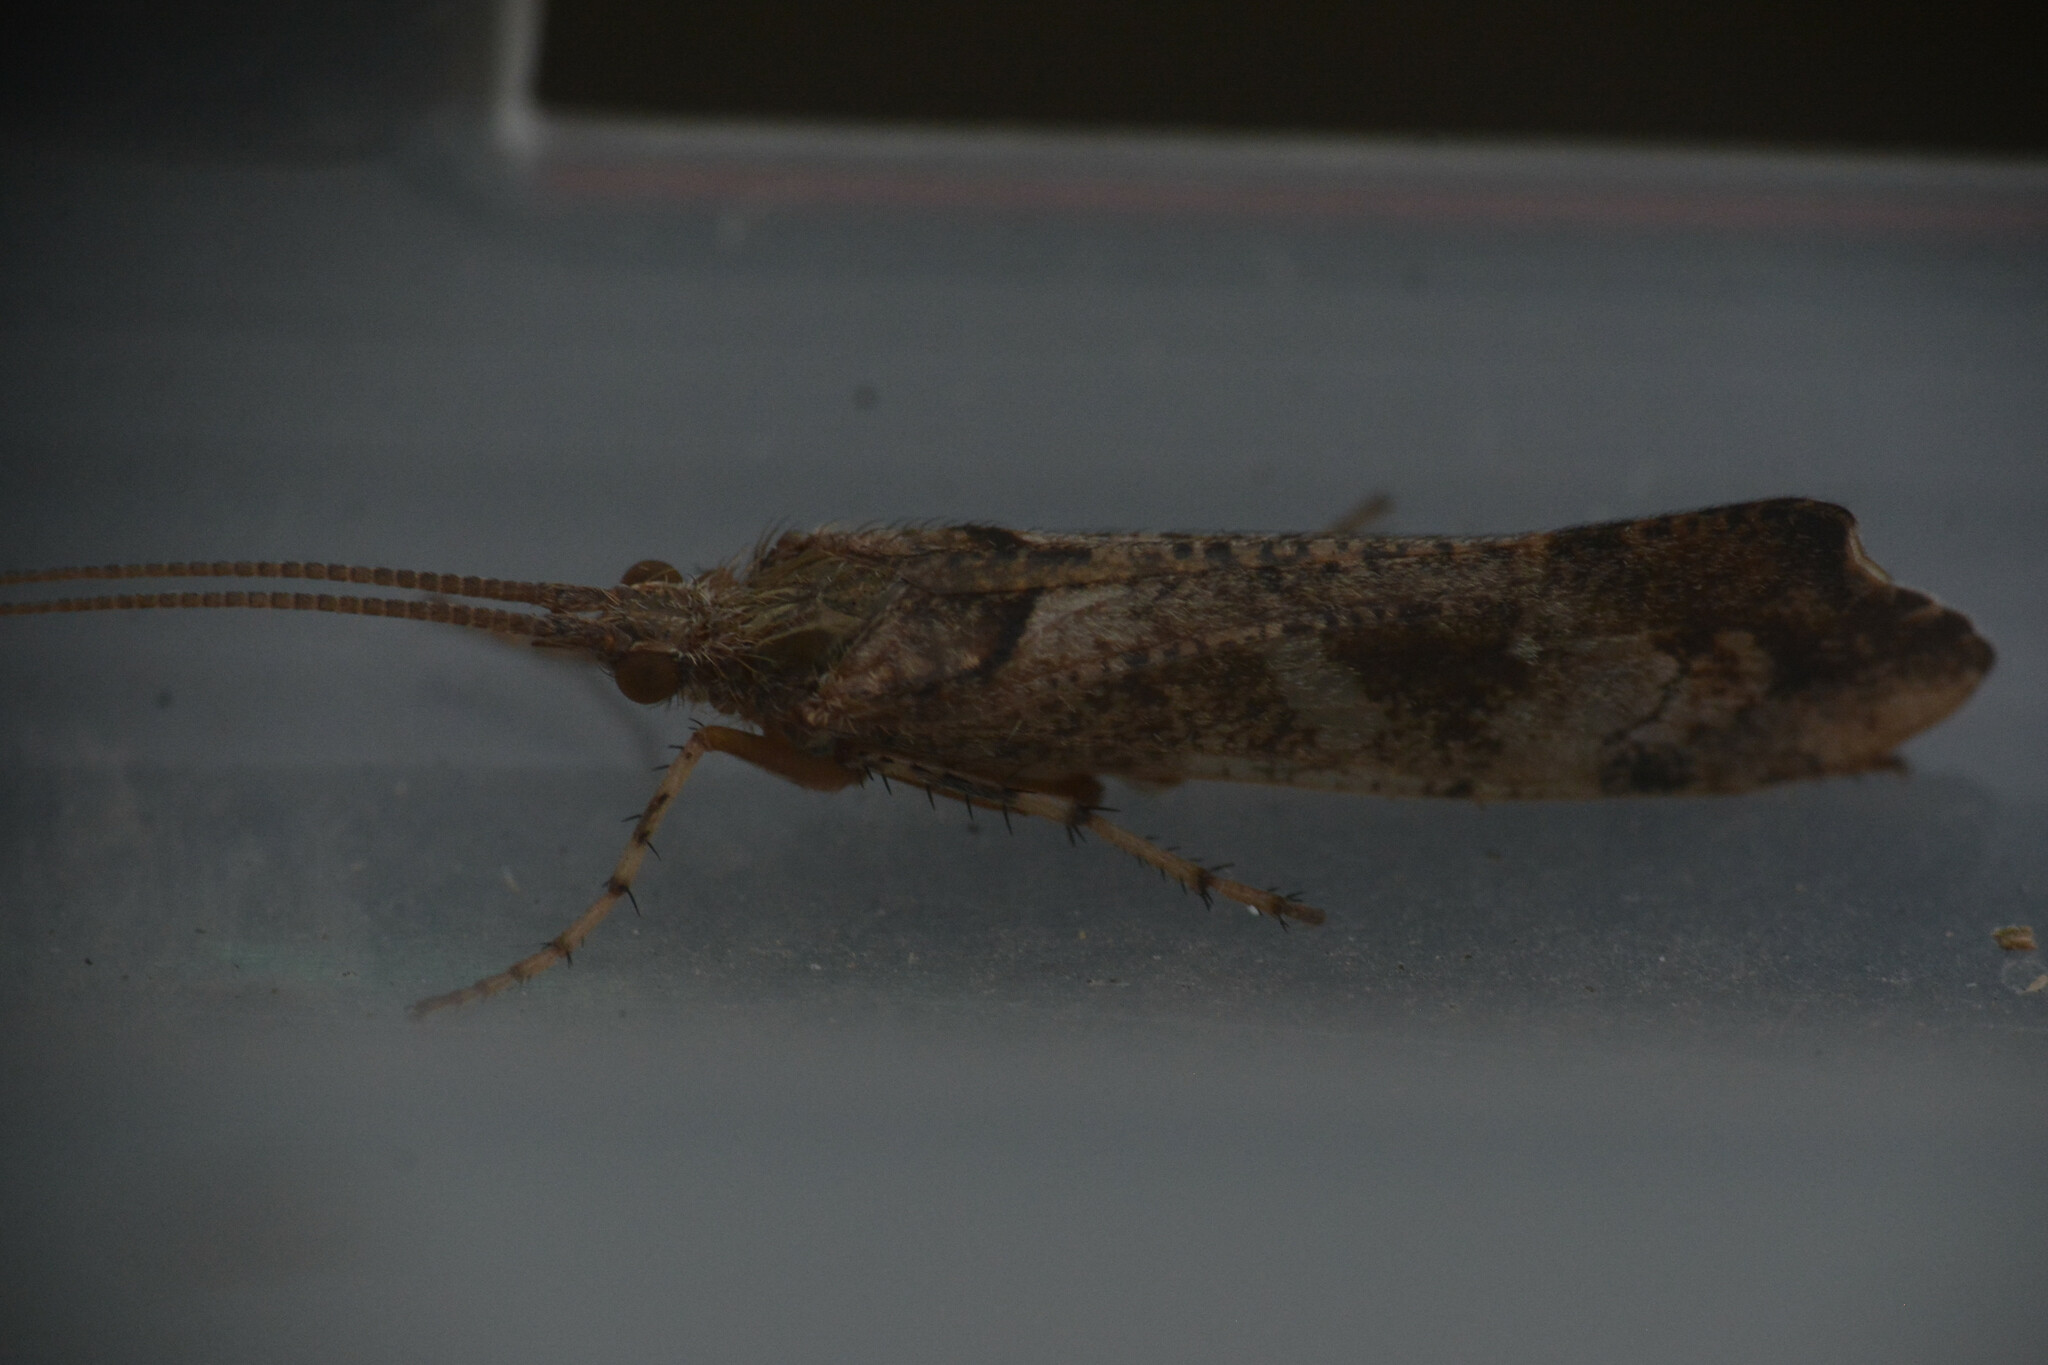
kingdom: Animalia
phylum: Arthropoda
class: Insecta
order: Trichoptera
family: Limnephilidae
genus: Glyphotaelius
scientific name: Glyphotaelius pellucidus
